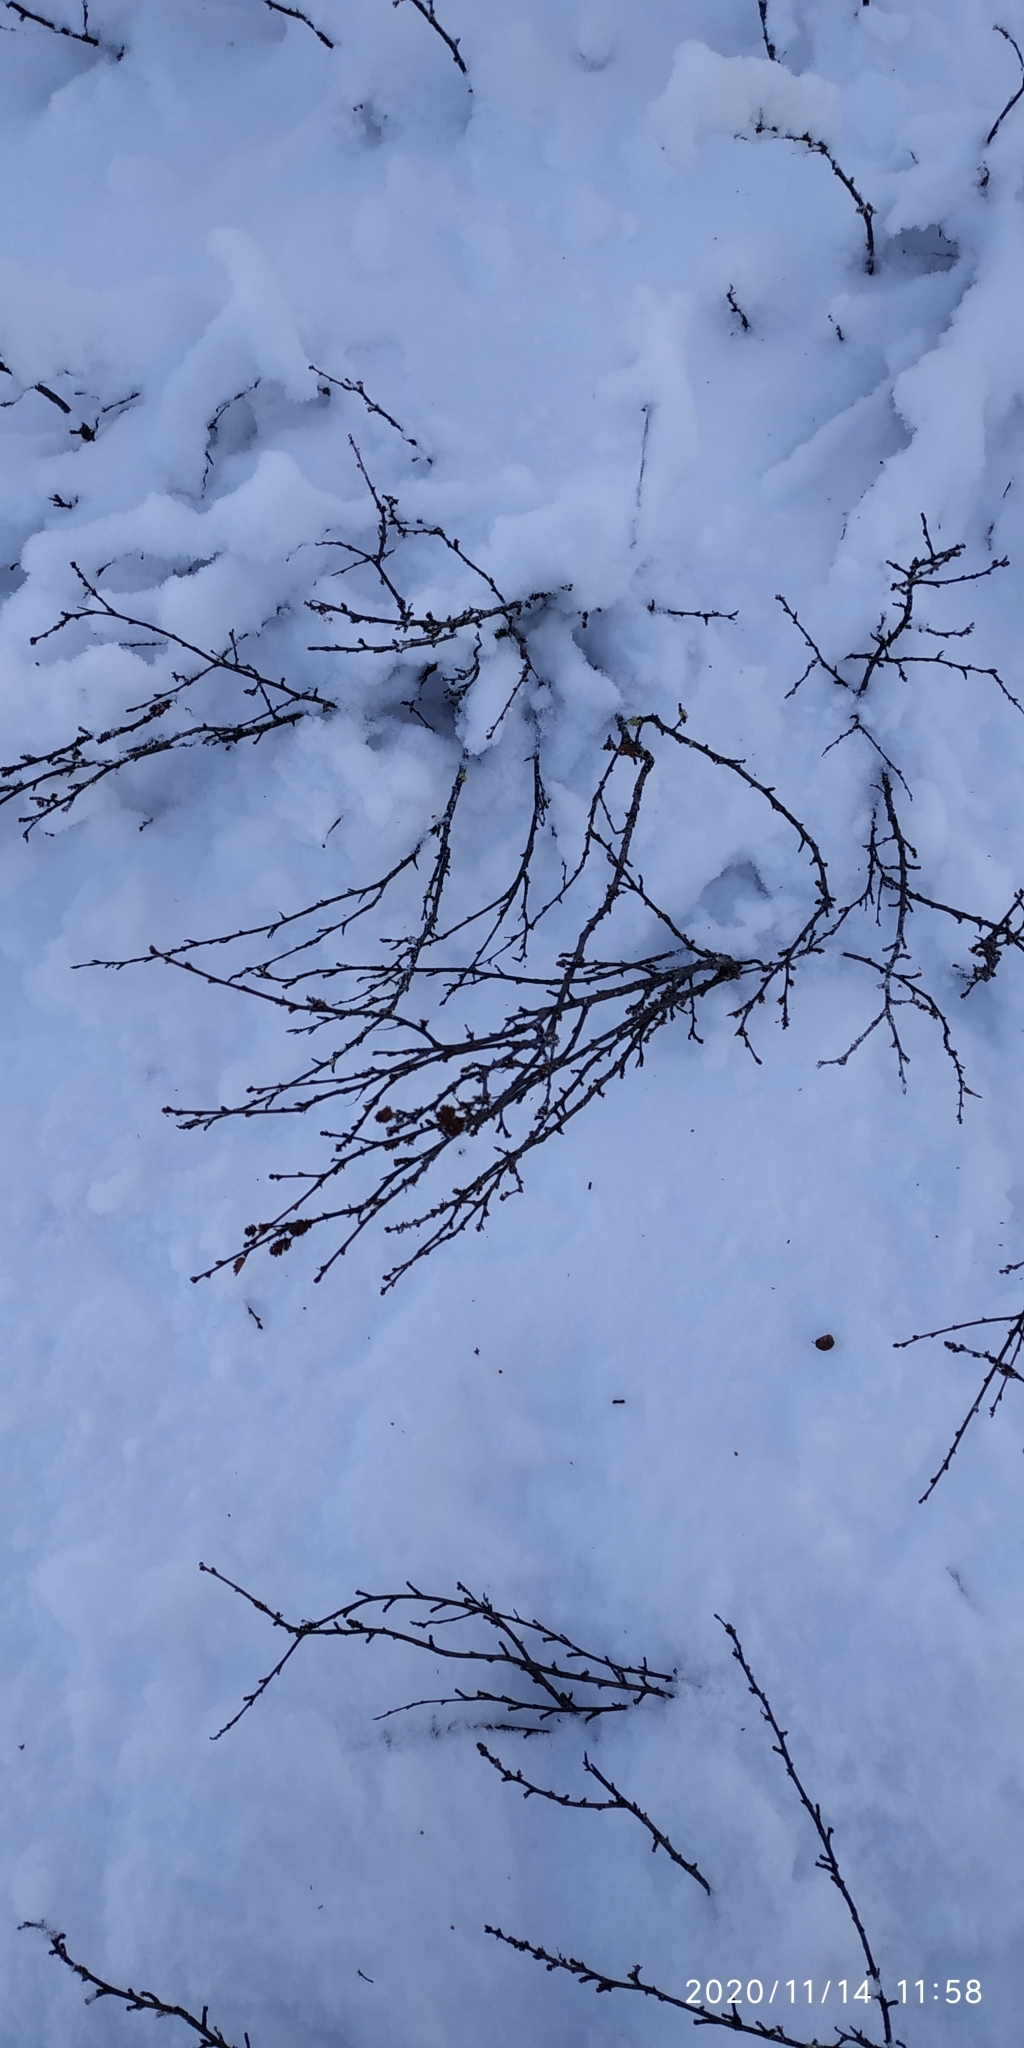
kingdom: Plantae
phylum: Tracheophyta
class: Magnoliopsida
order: Fagales
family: Betulaceae
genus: Betula
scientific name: Betula nana
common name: Arctic dwarf birch
